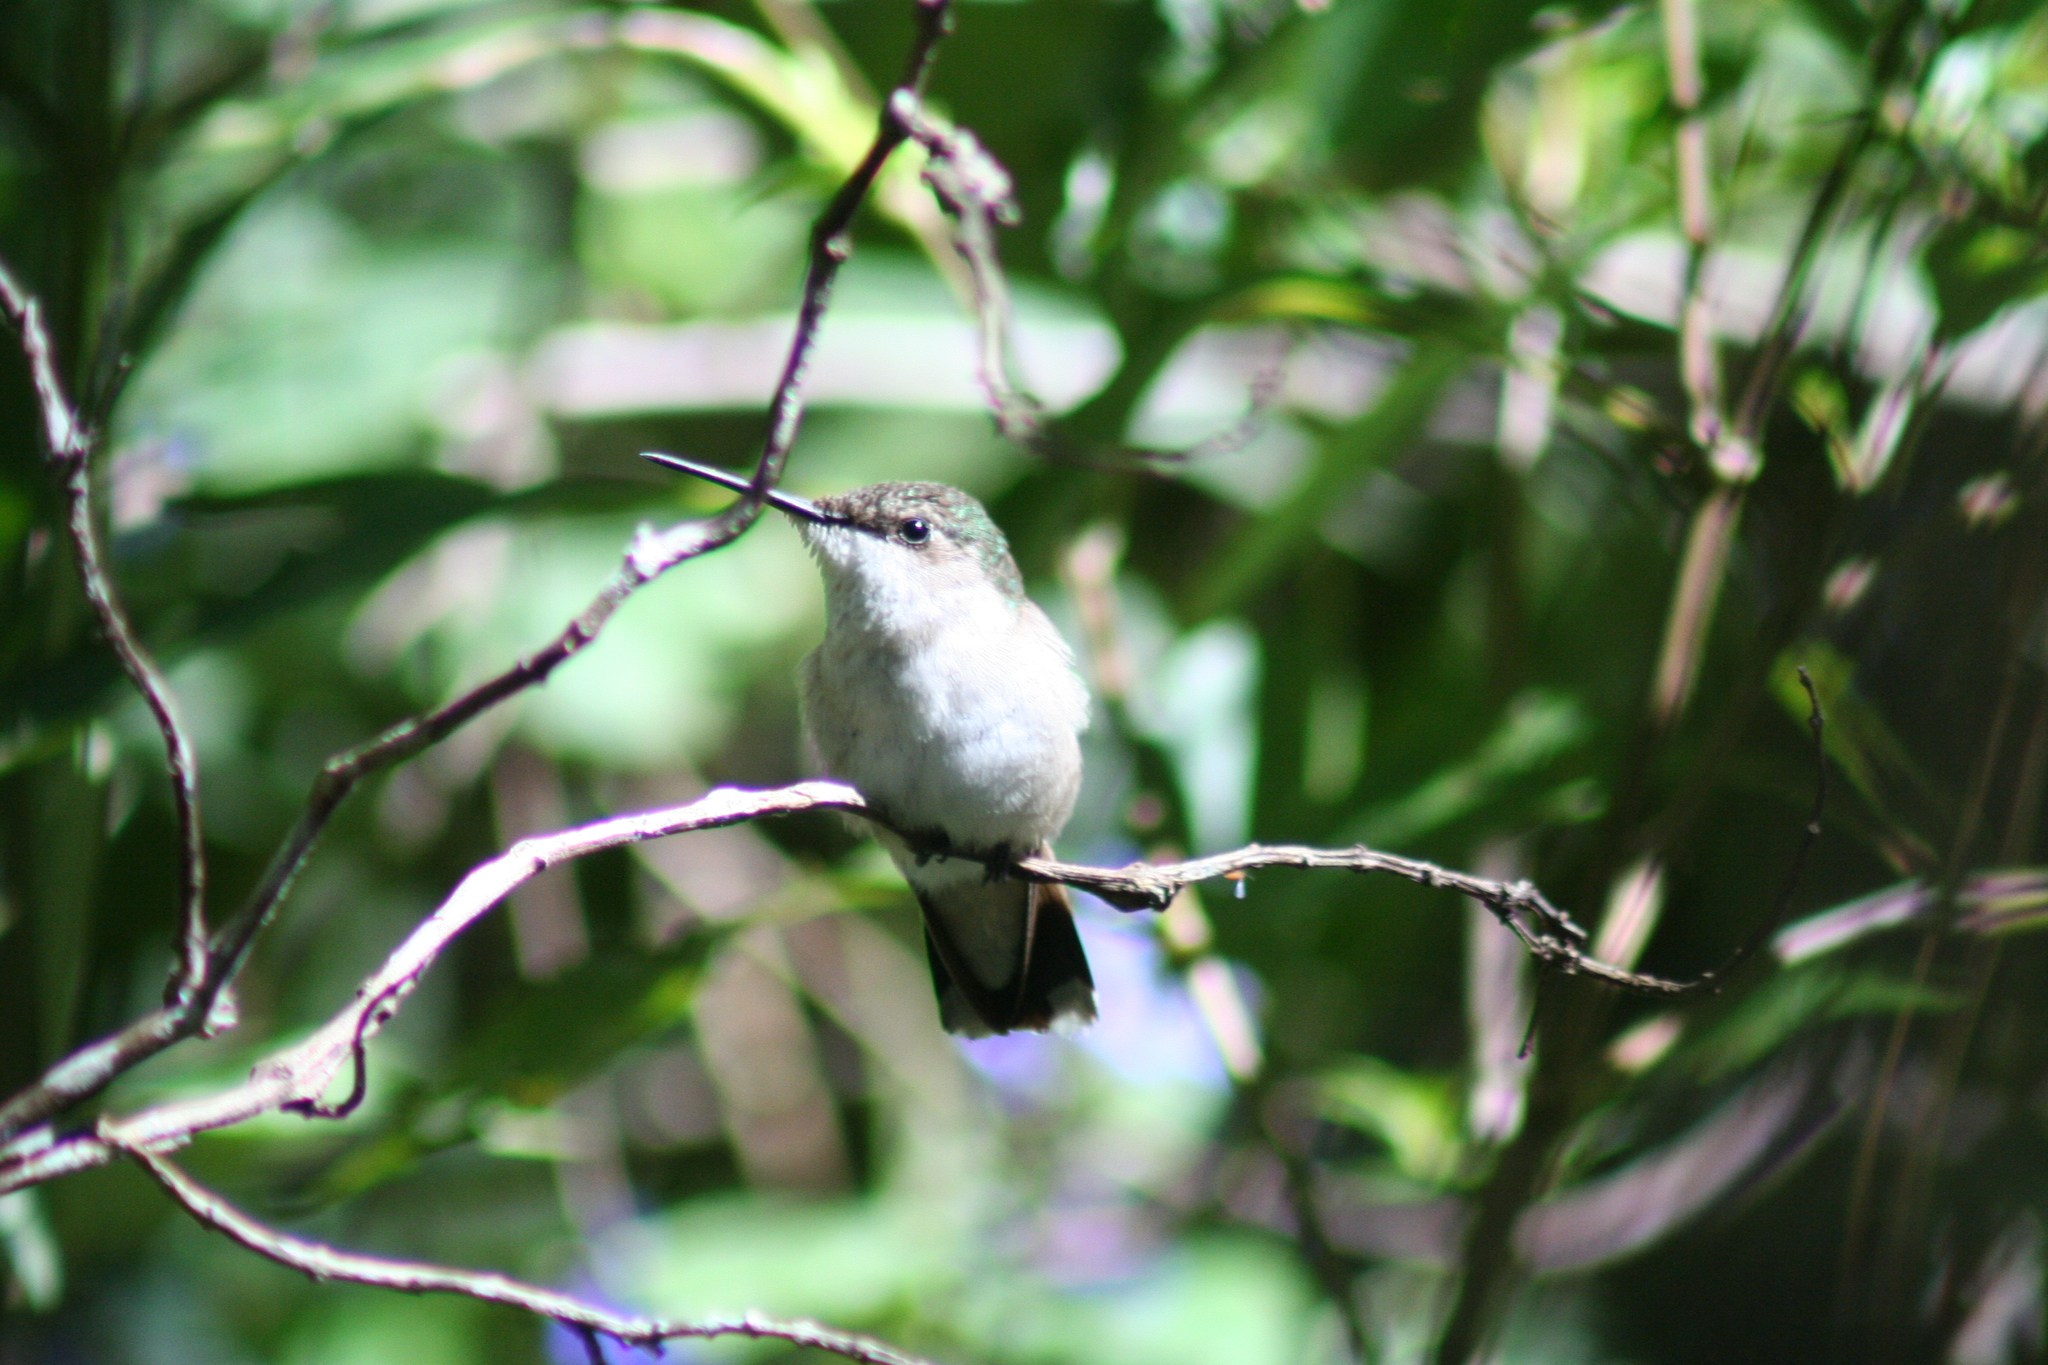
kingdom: Animalia
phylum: Chordata
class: Aves
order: Apodiformes
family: Trochilidae
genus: Archilochus
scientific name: Archilochus colubris
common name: Ruby-throated hummingbird
